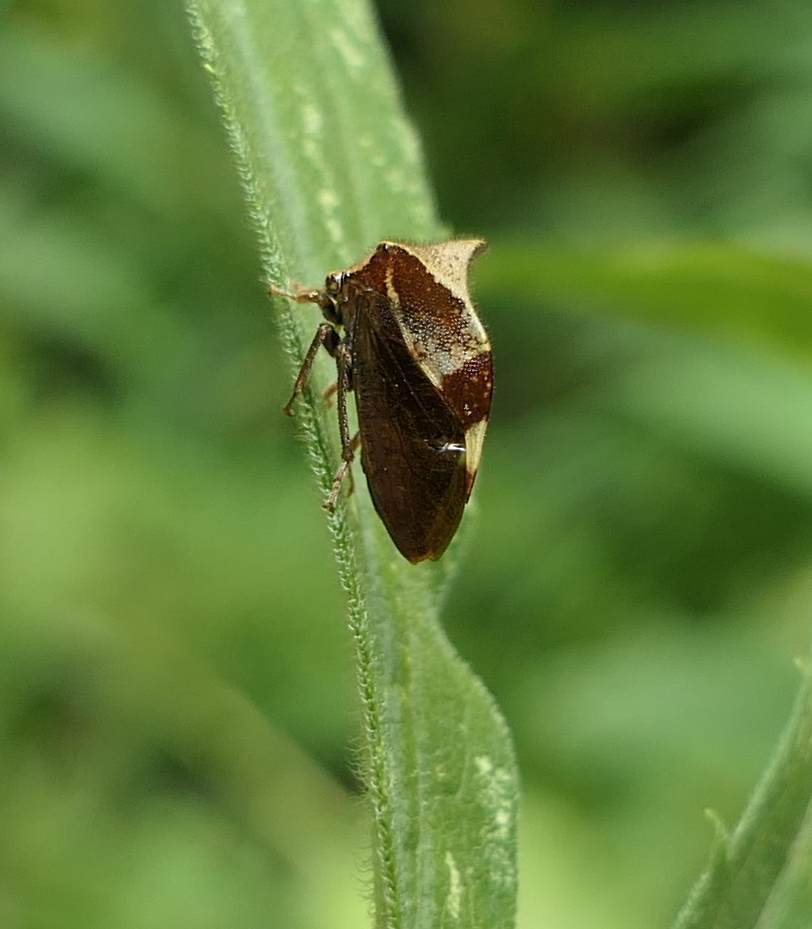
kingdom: Animalia
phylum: Arthropoda
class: Insecta
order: Hemiptera
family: Membracidae
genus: Stictocephala
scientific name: Stictocephala diceros
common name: Two-horned treehopper
